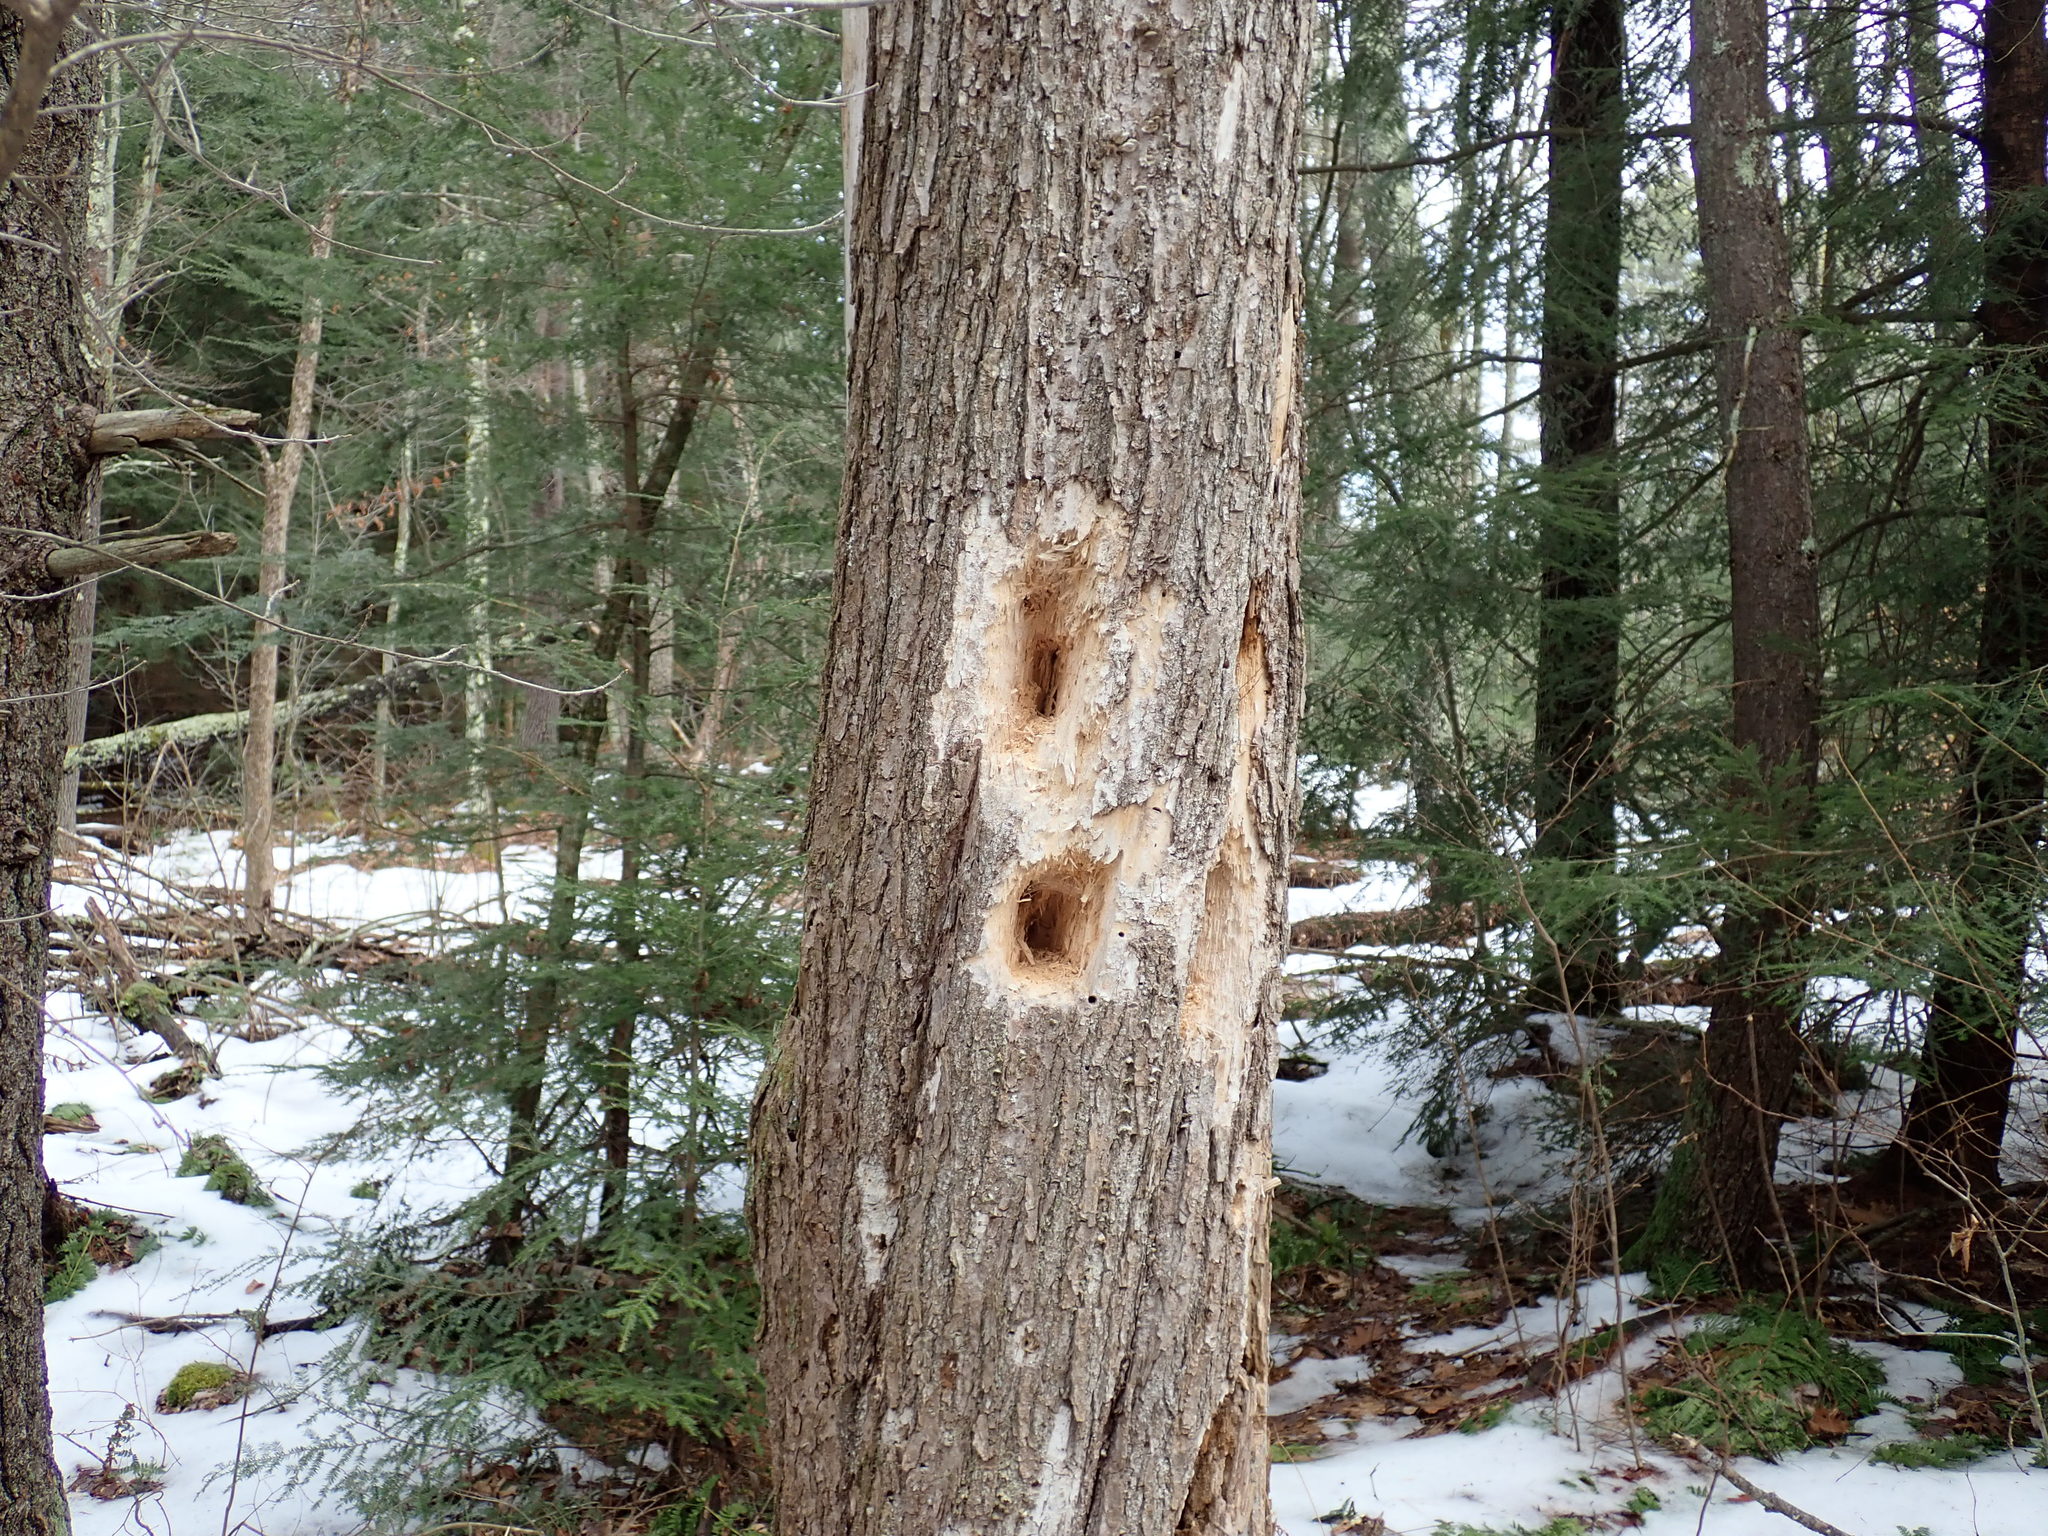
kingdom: Animalia
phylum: Chordata
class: Aves
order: Piciformes
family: Picidae
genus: Dryocopus
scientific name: Dryocopus pileatus
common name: Pileated woodpecker
